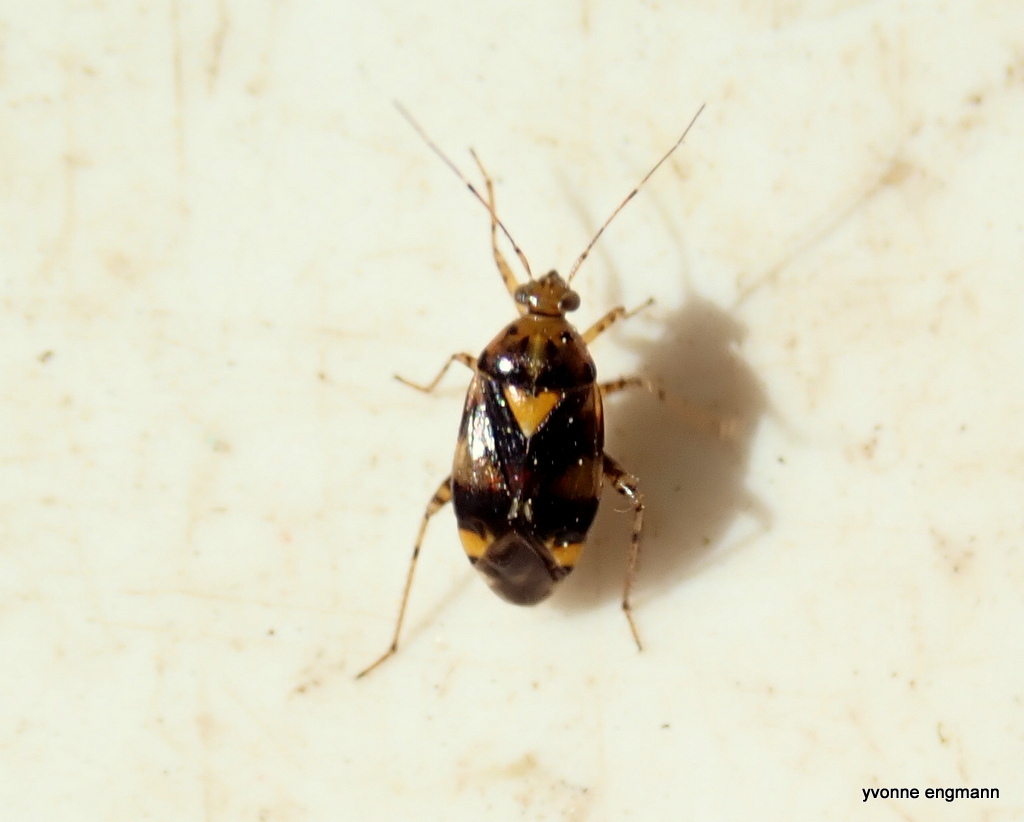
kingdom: Animalia
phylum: Arthropoda
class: Insecta
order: Hemiptera
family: Miridae
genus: Liocoris
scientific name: Liocoris tripustulatus
